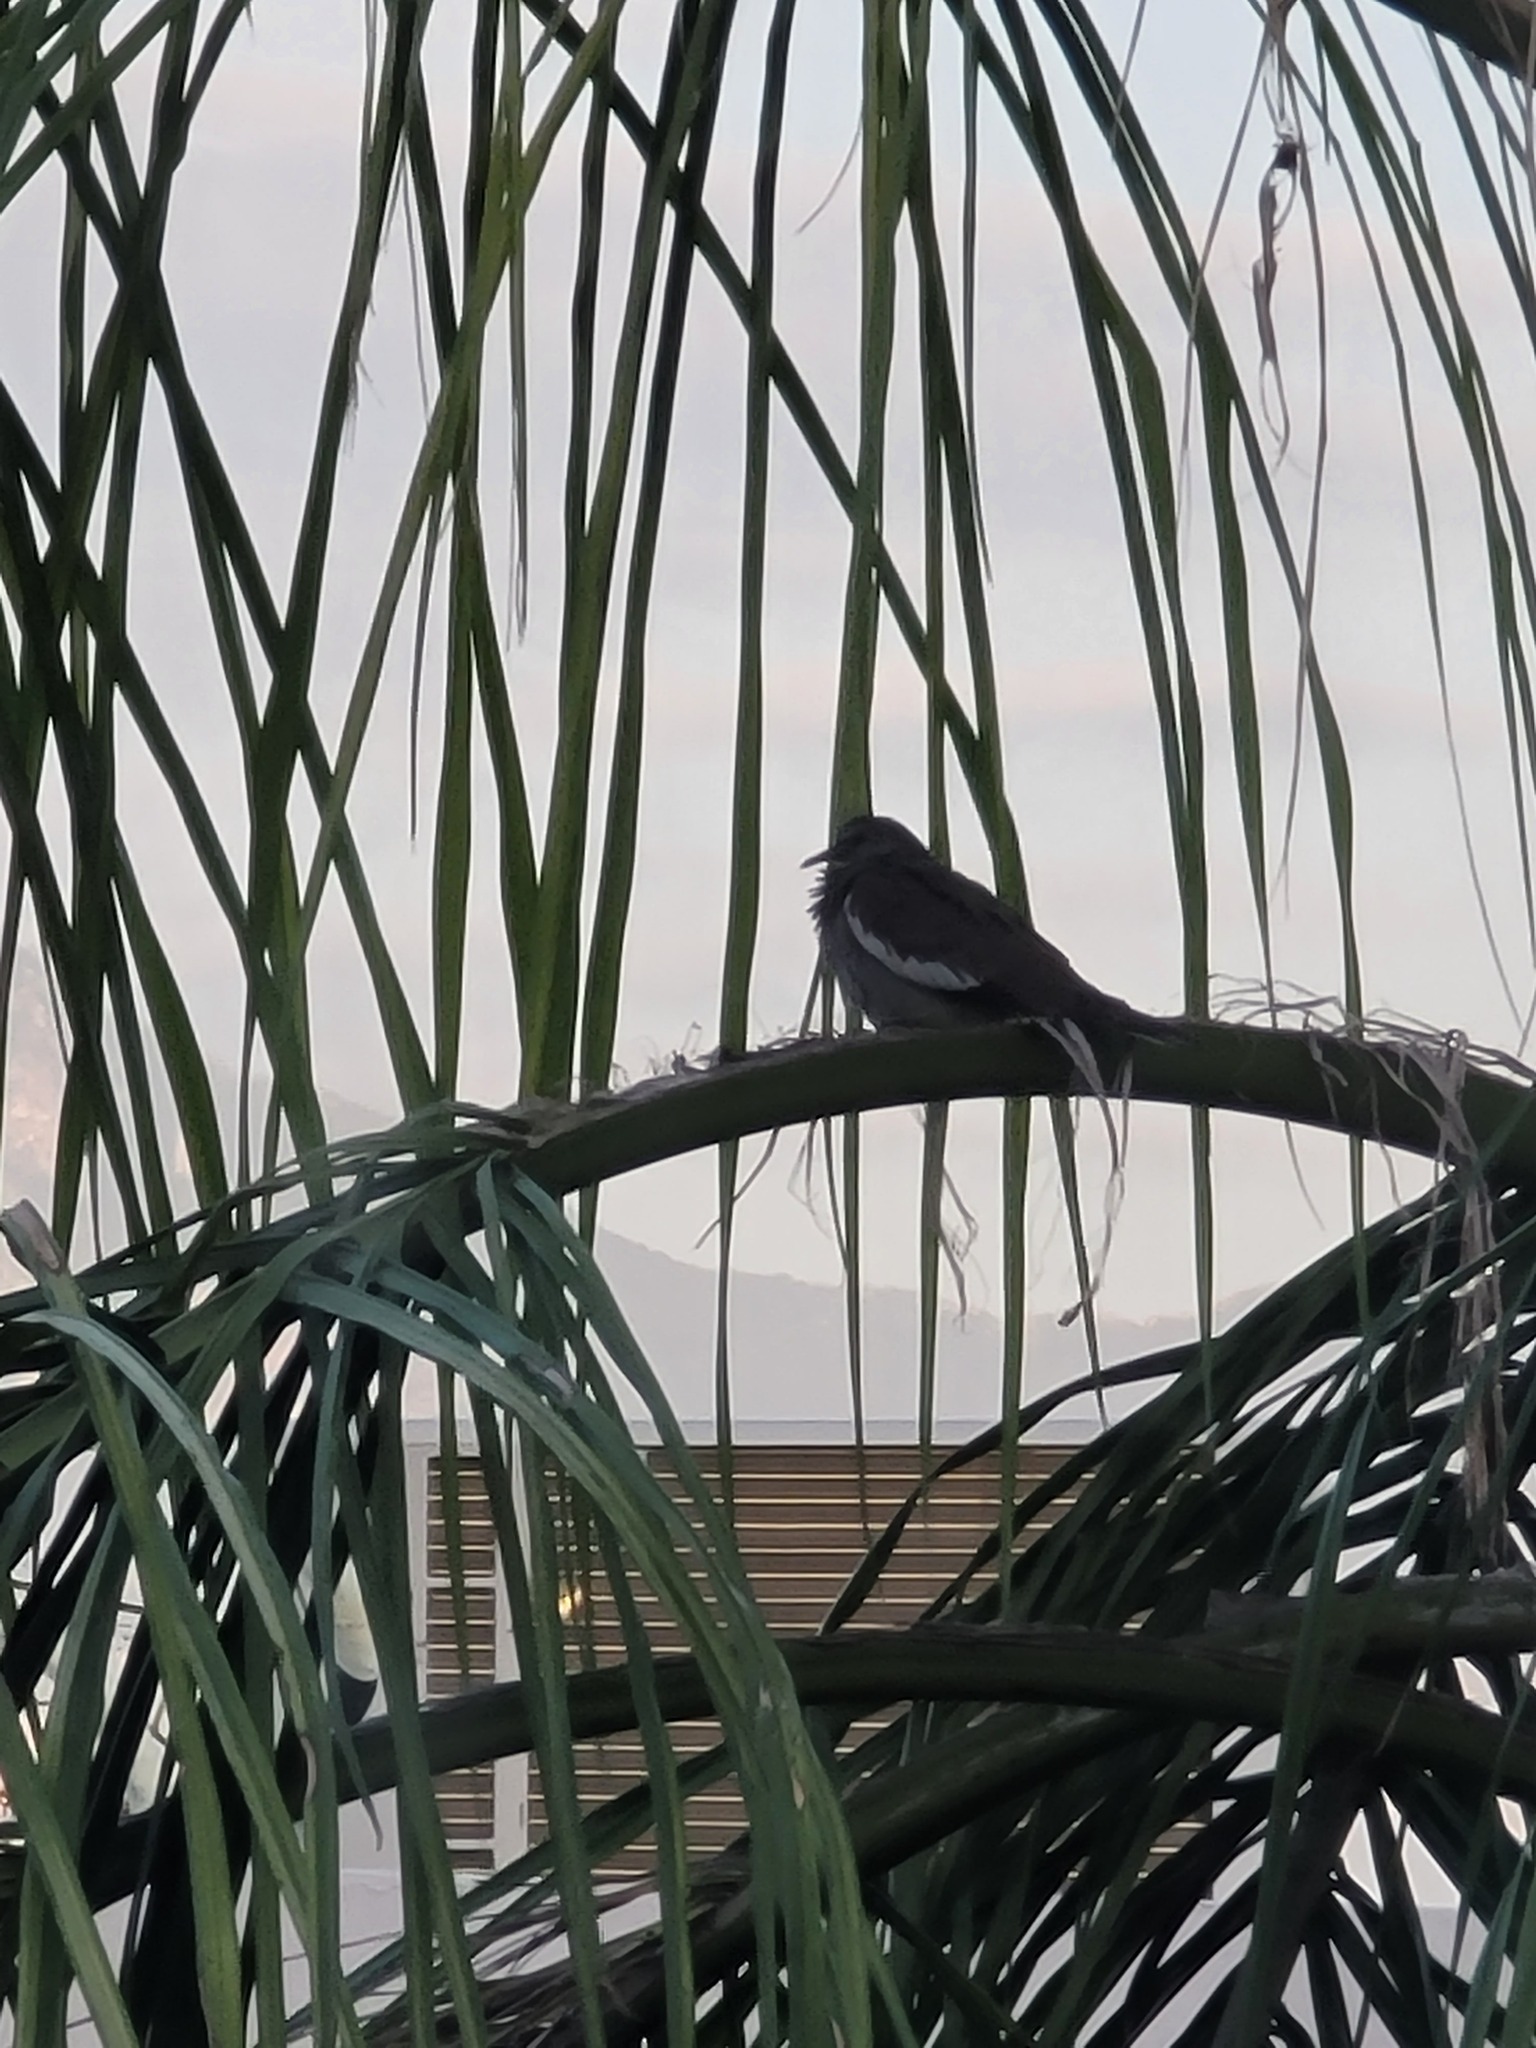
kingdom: Animalia
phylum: Chordata
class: Aves
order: Columbiformes
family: Columbidae
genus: Zenaida
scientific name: Zenaida asiatica
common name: White-winged dove
